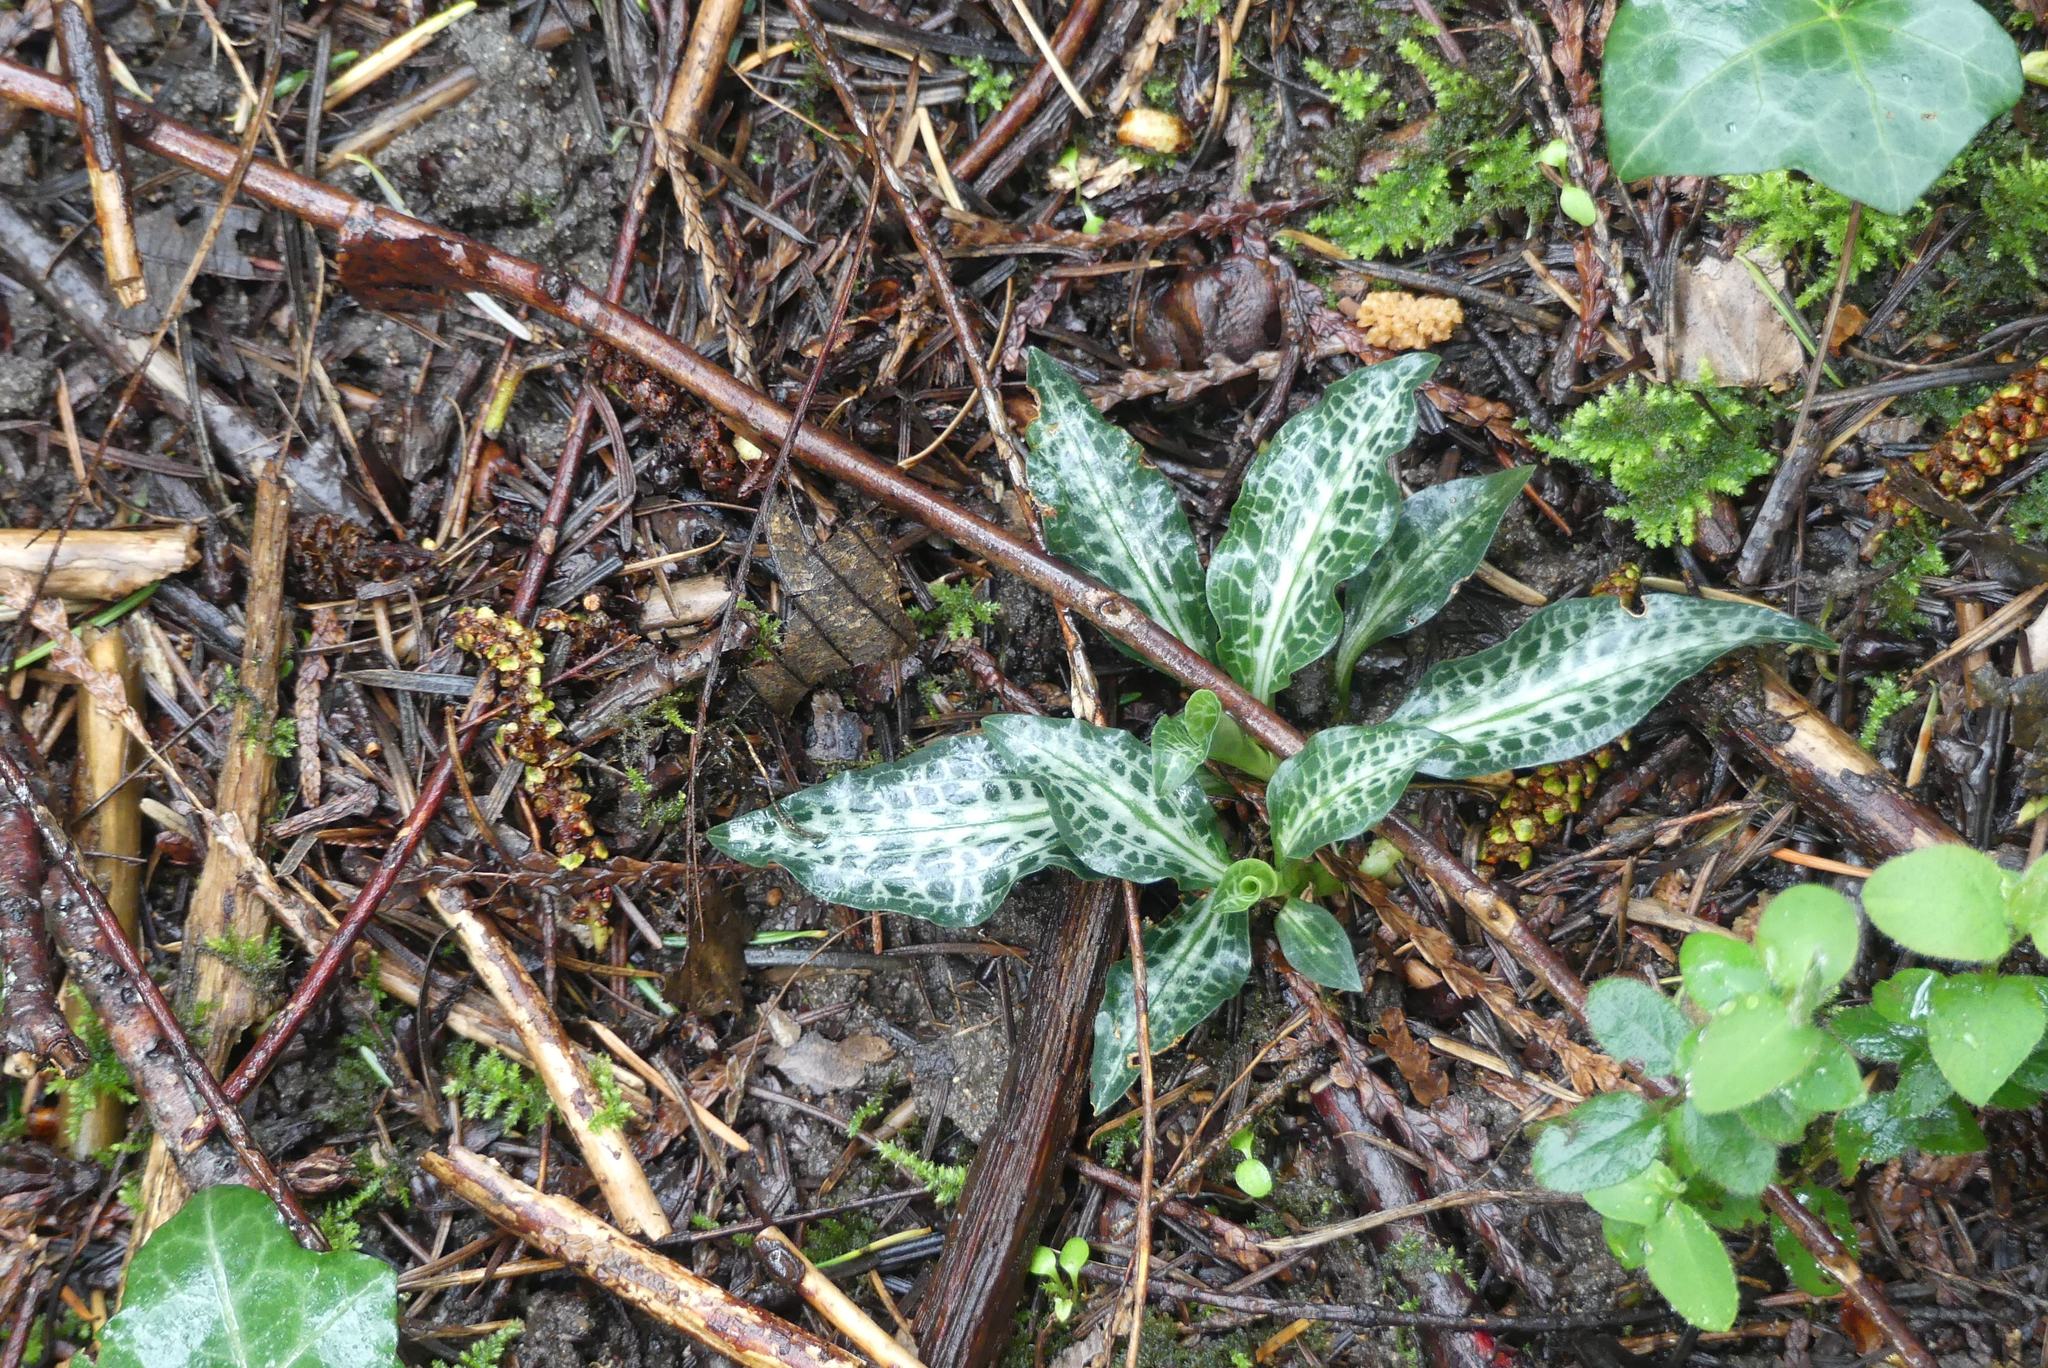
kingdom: Plantae
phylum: Tracheophyta
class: Liliopsida
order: Asparagales
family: Orchidaceae
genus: Goodyera
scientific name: Goodyera oblongifolia
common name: Giant rattlesnake-plantain
